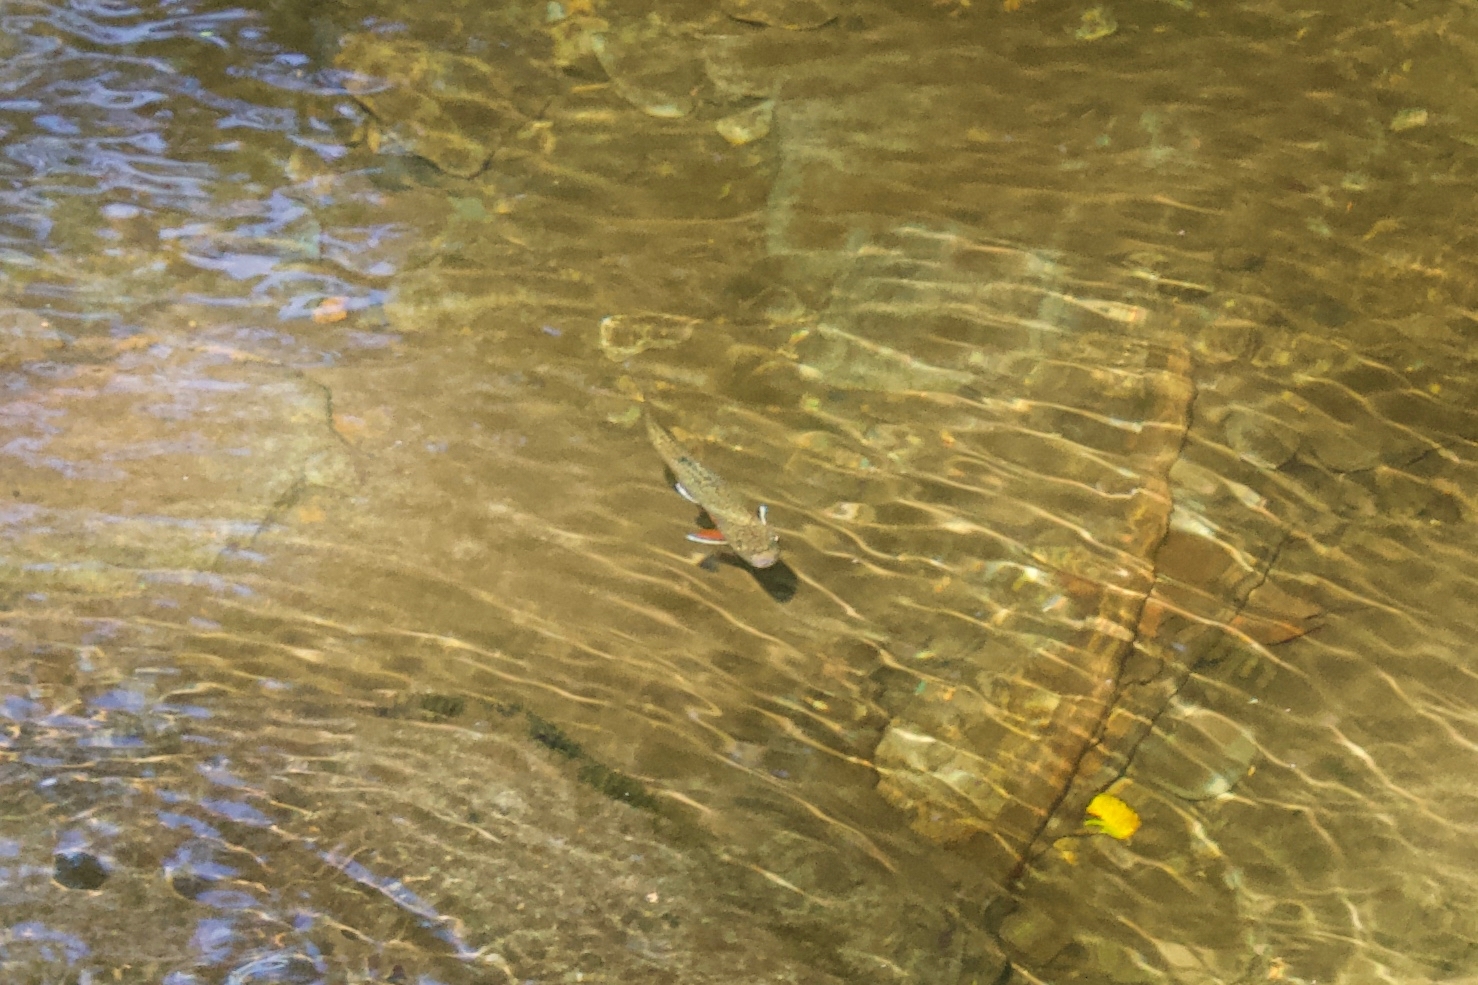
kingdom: Animalia
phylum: Chordata
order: Salmoniformes
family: Salmonidae
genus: Salvelinus
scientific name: Salvelinus fontinalis
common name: Brook trout
